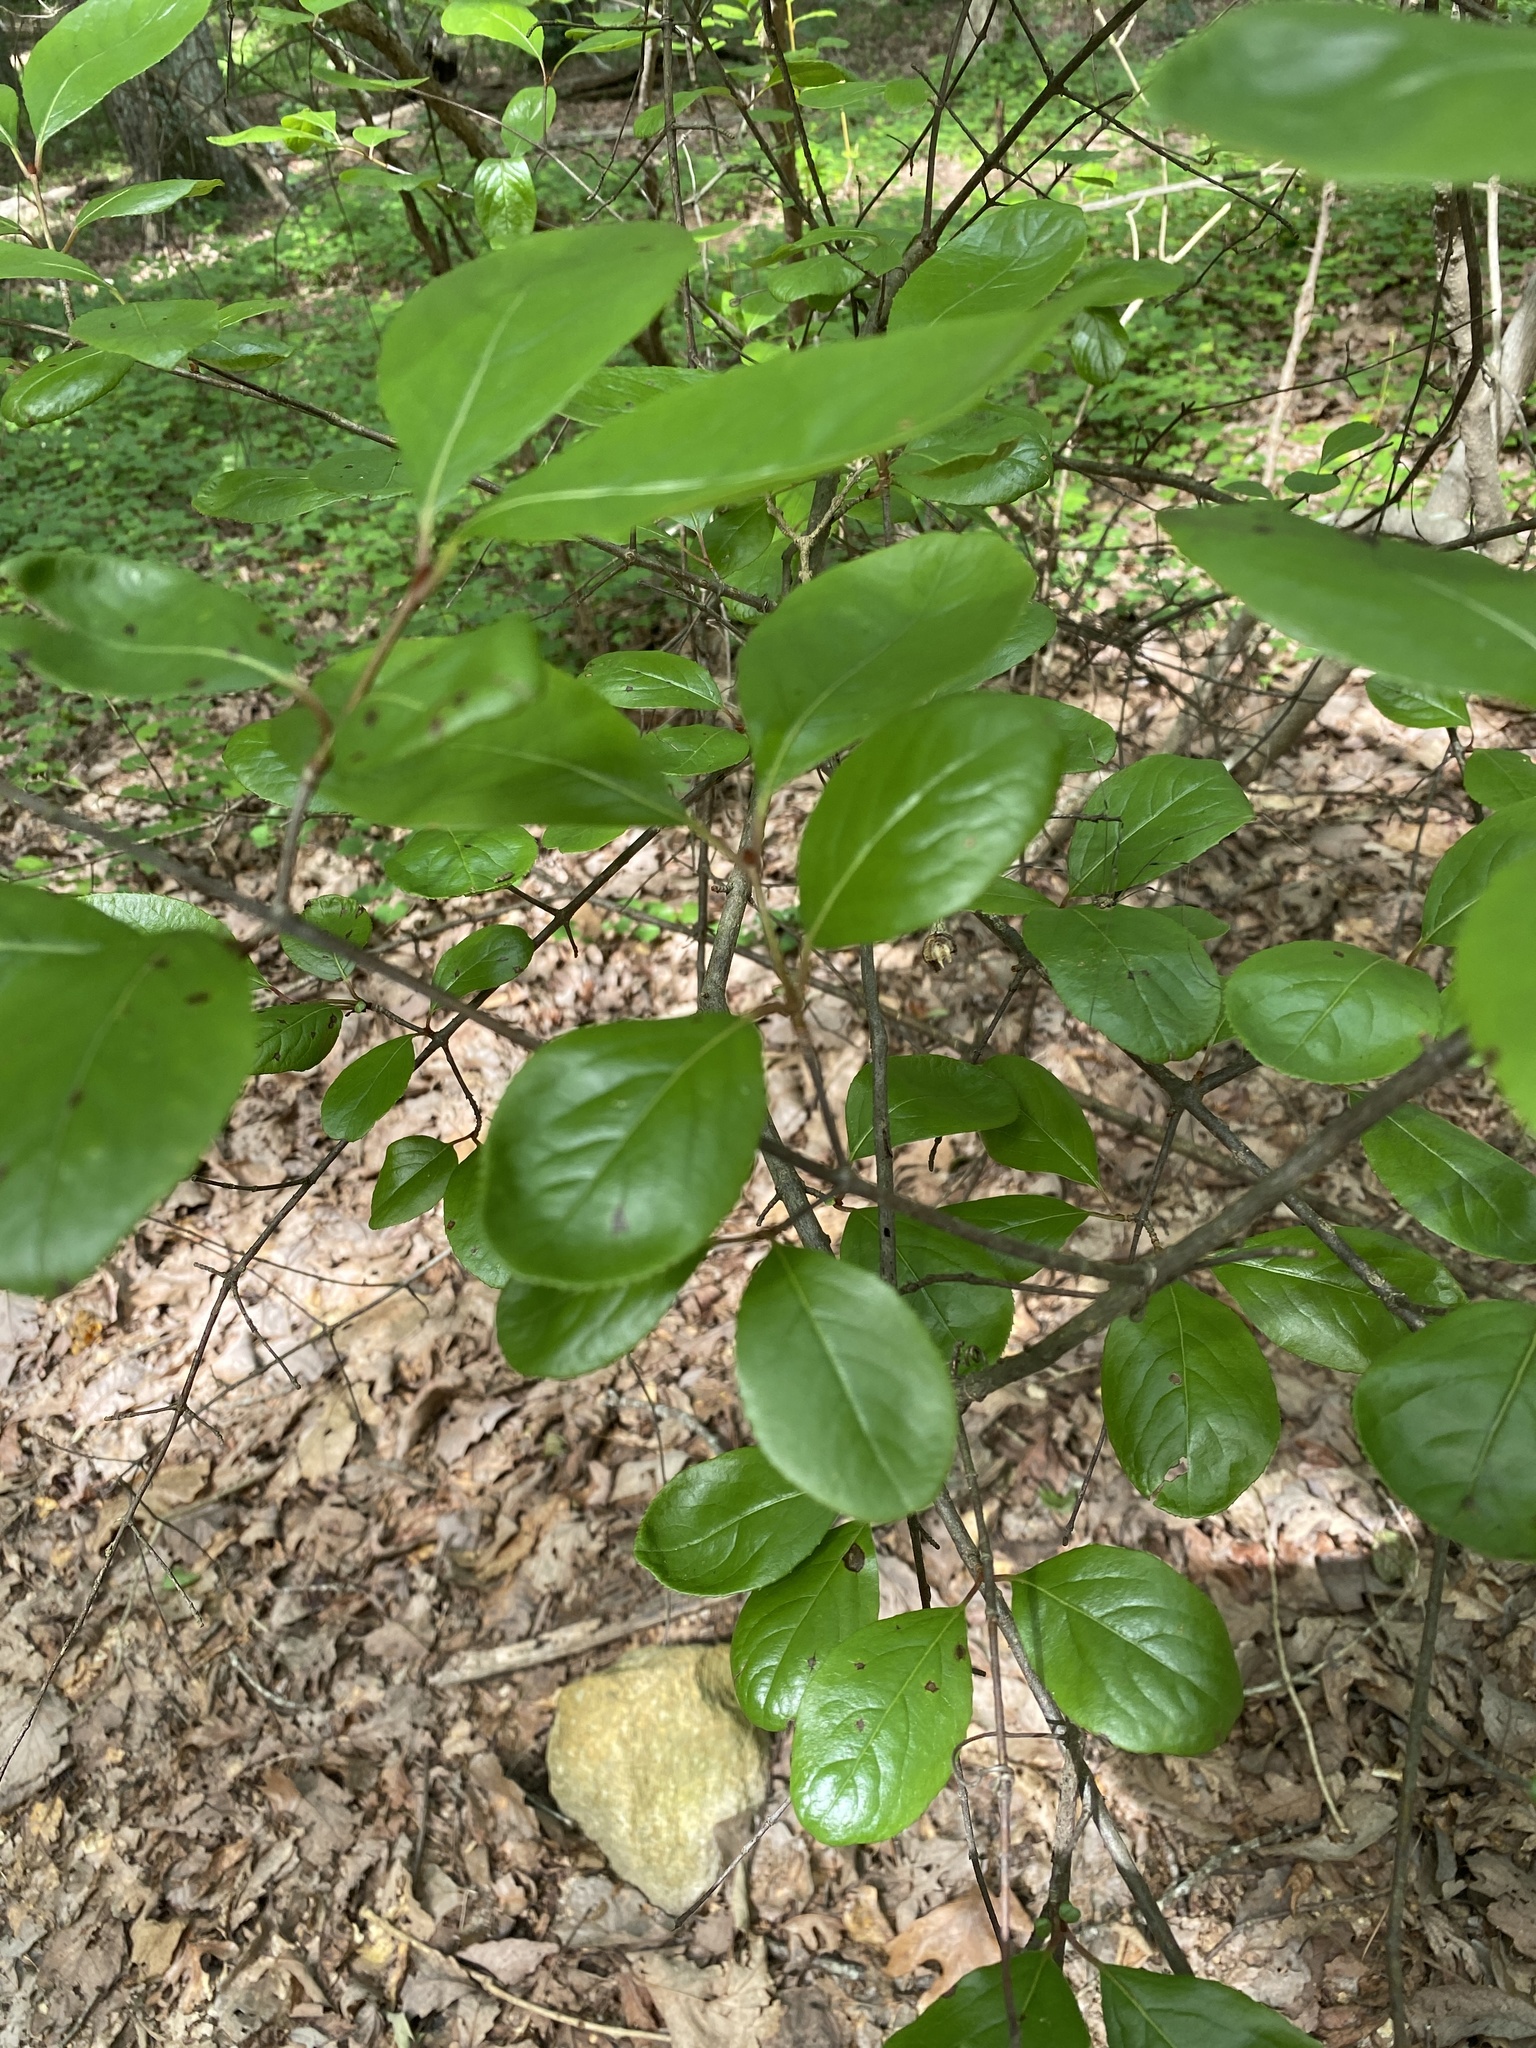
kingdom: Plantae
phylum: Tracheophyta
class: Magnoliopsida
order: Dipsacales
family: Viburnaceae
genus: Viburnum
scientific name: Viburnum rufidulum
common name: Blue haw
